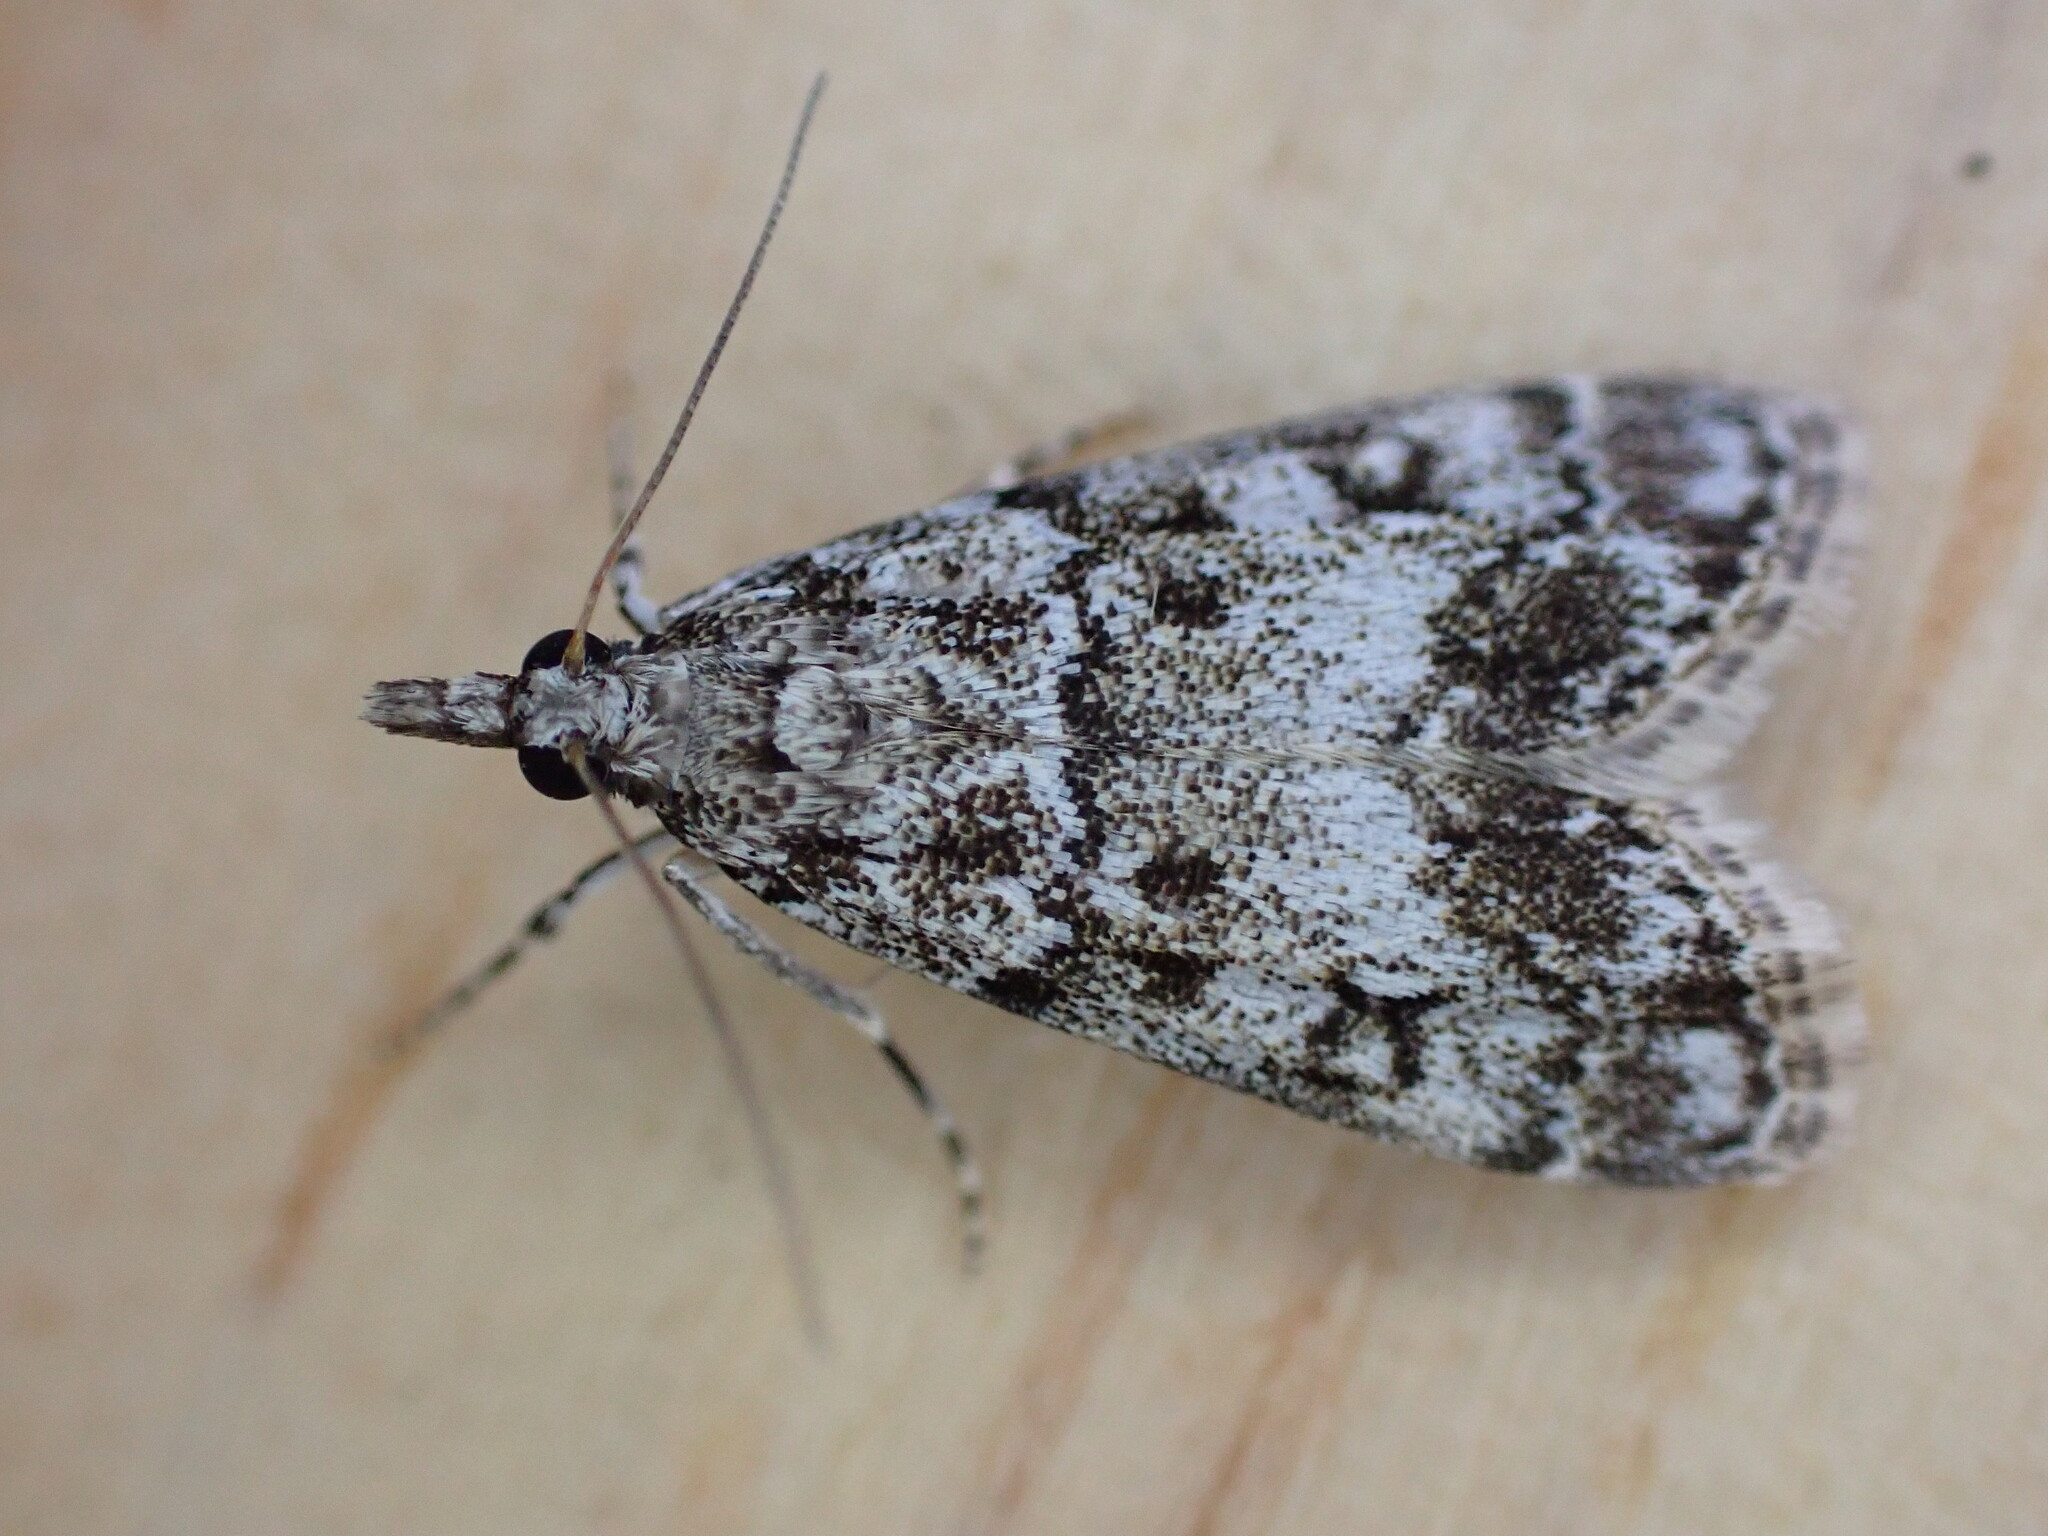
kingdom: Animalia
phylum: Arthropoda
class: Insecta
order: Lepidoptera
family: Crambidae
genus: Eudonia
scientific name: Eudonia lacustrata
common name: Little grey
